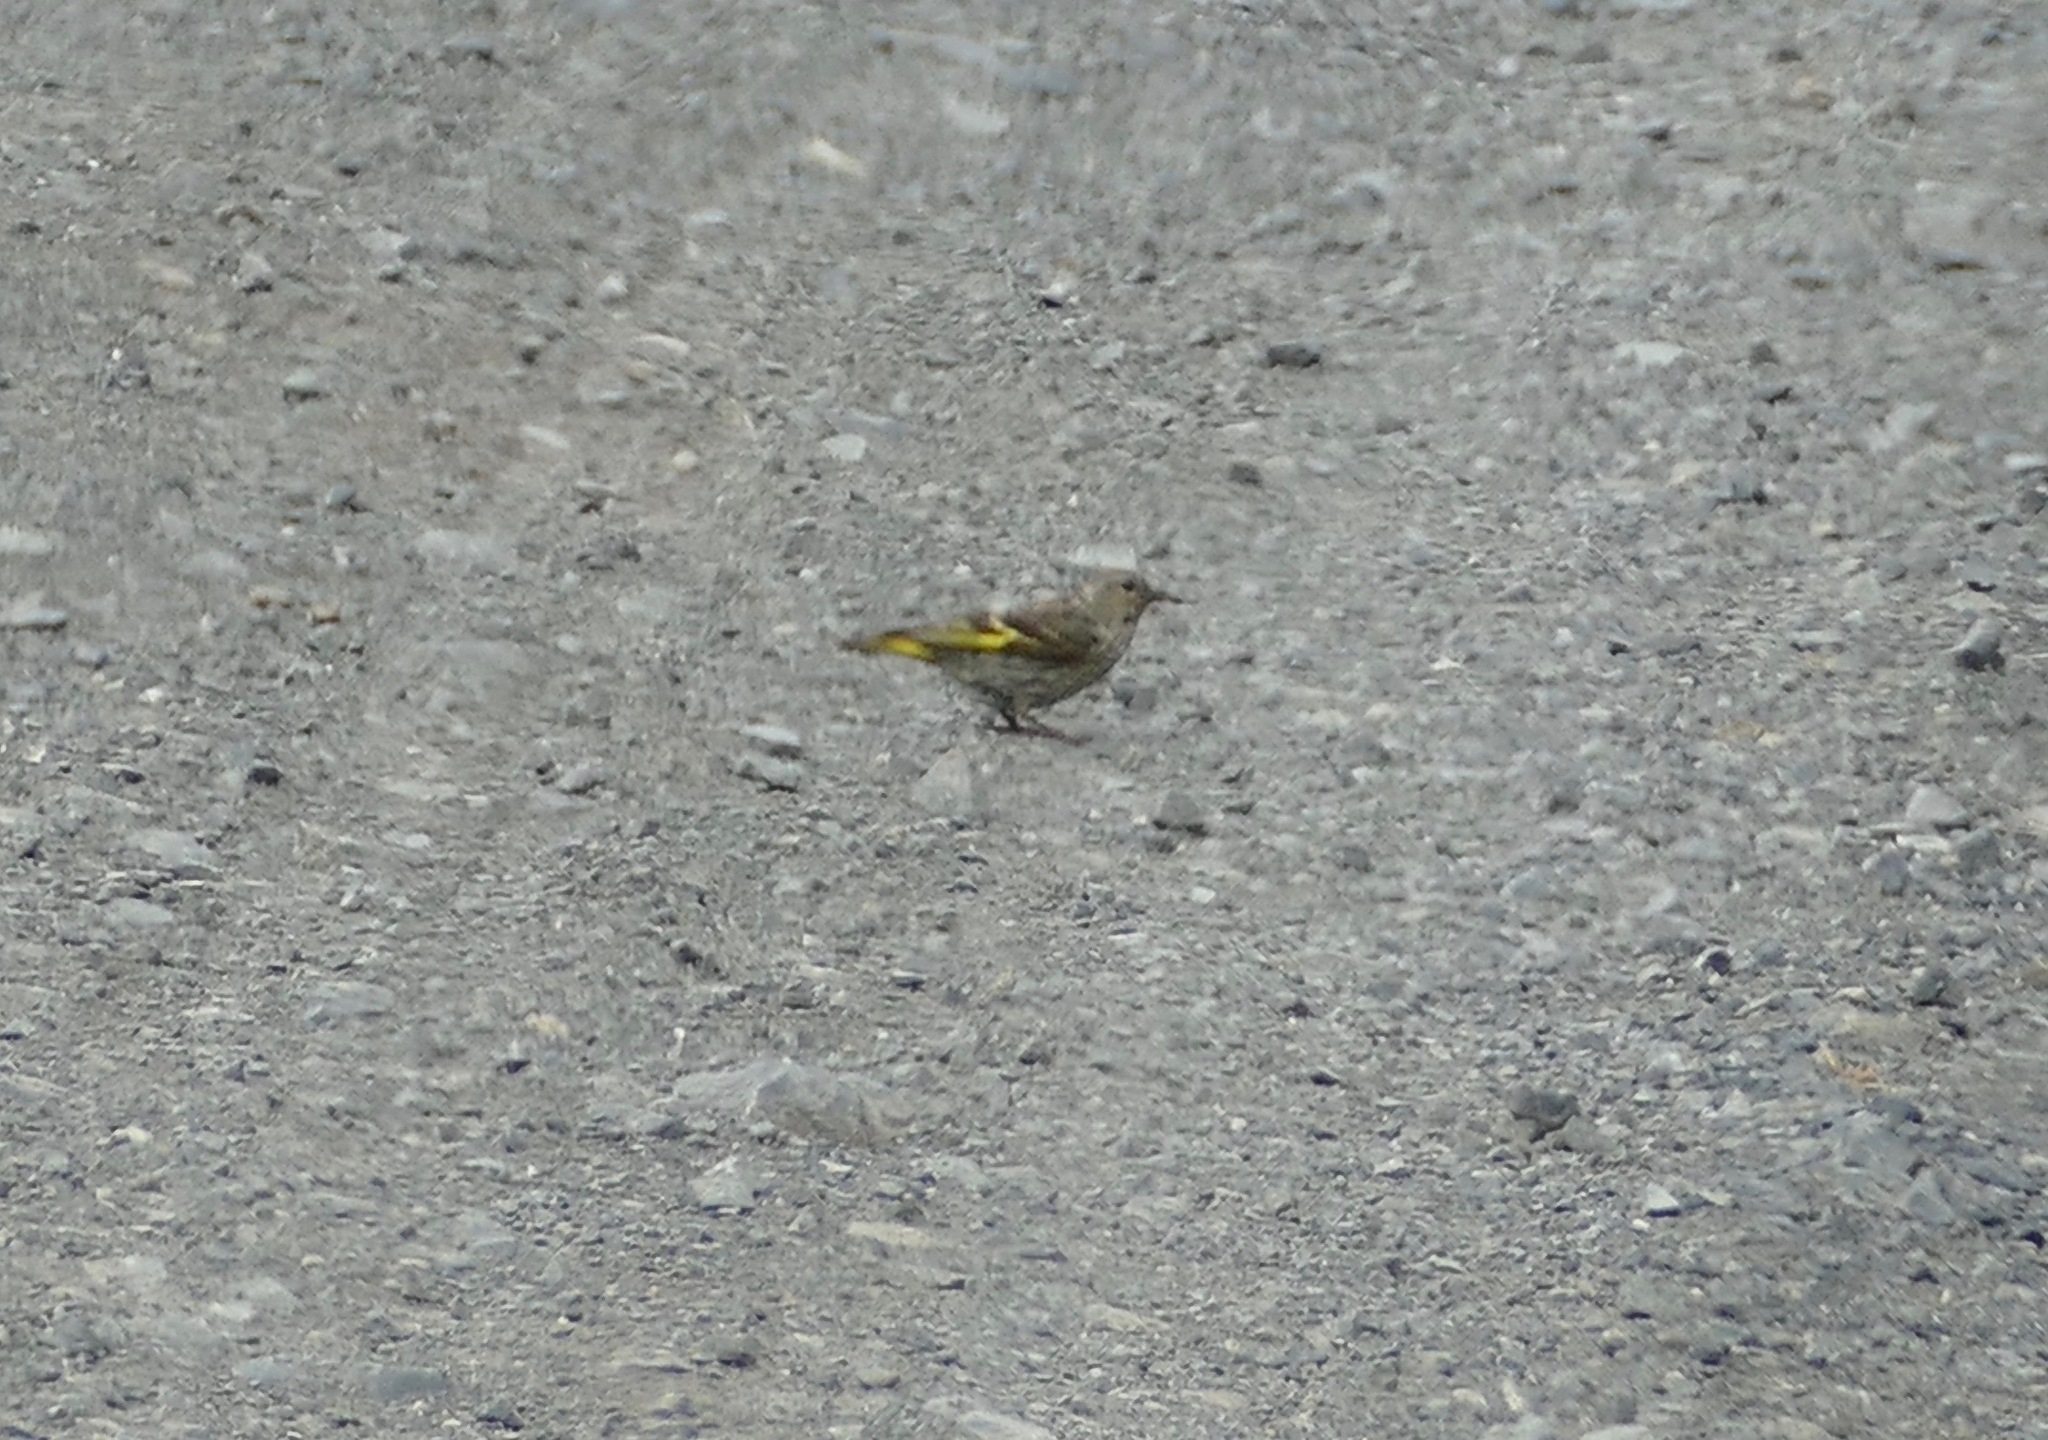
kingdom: Animalia
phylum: Chordata
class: Aves
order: Passeriformes
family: Fringillidae
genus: Spinus
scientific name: Spinus pinus
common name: Pine siskin
